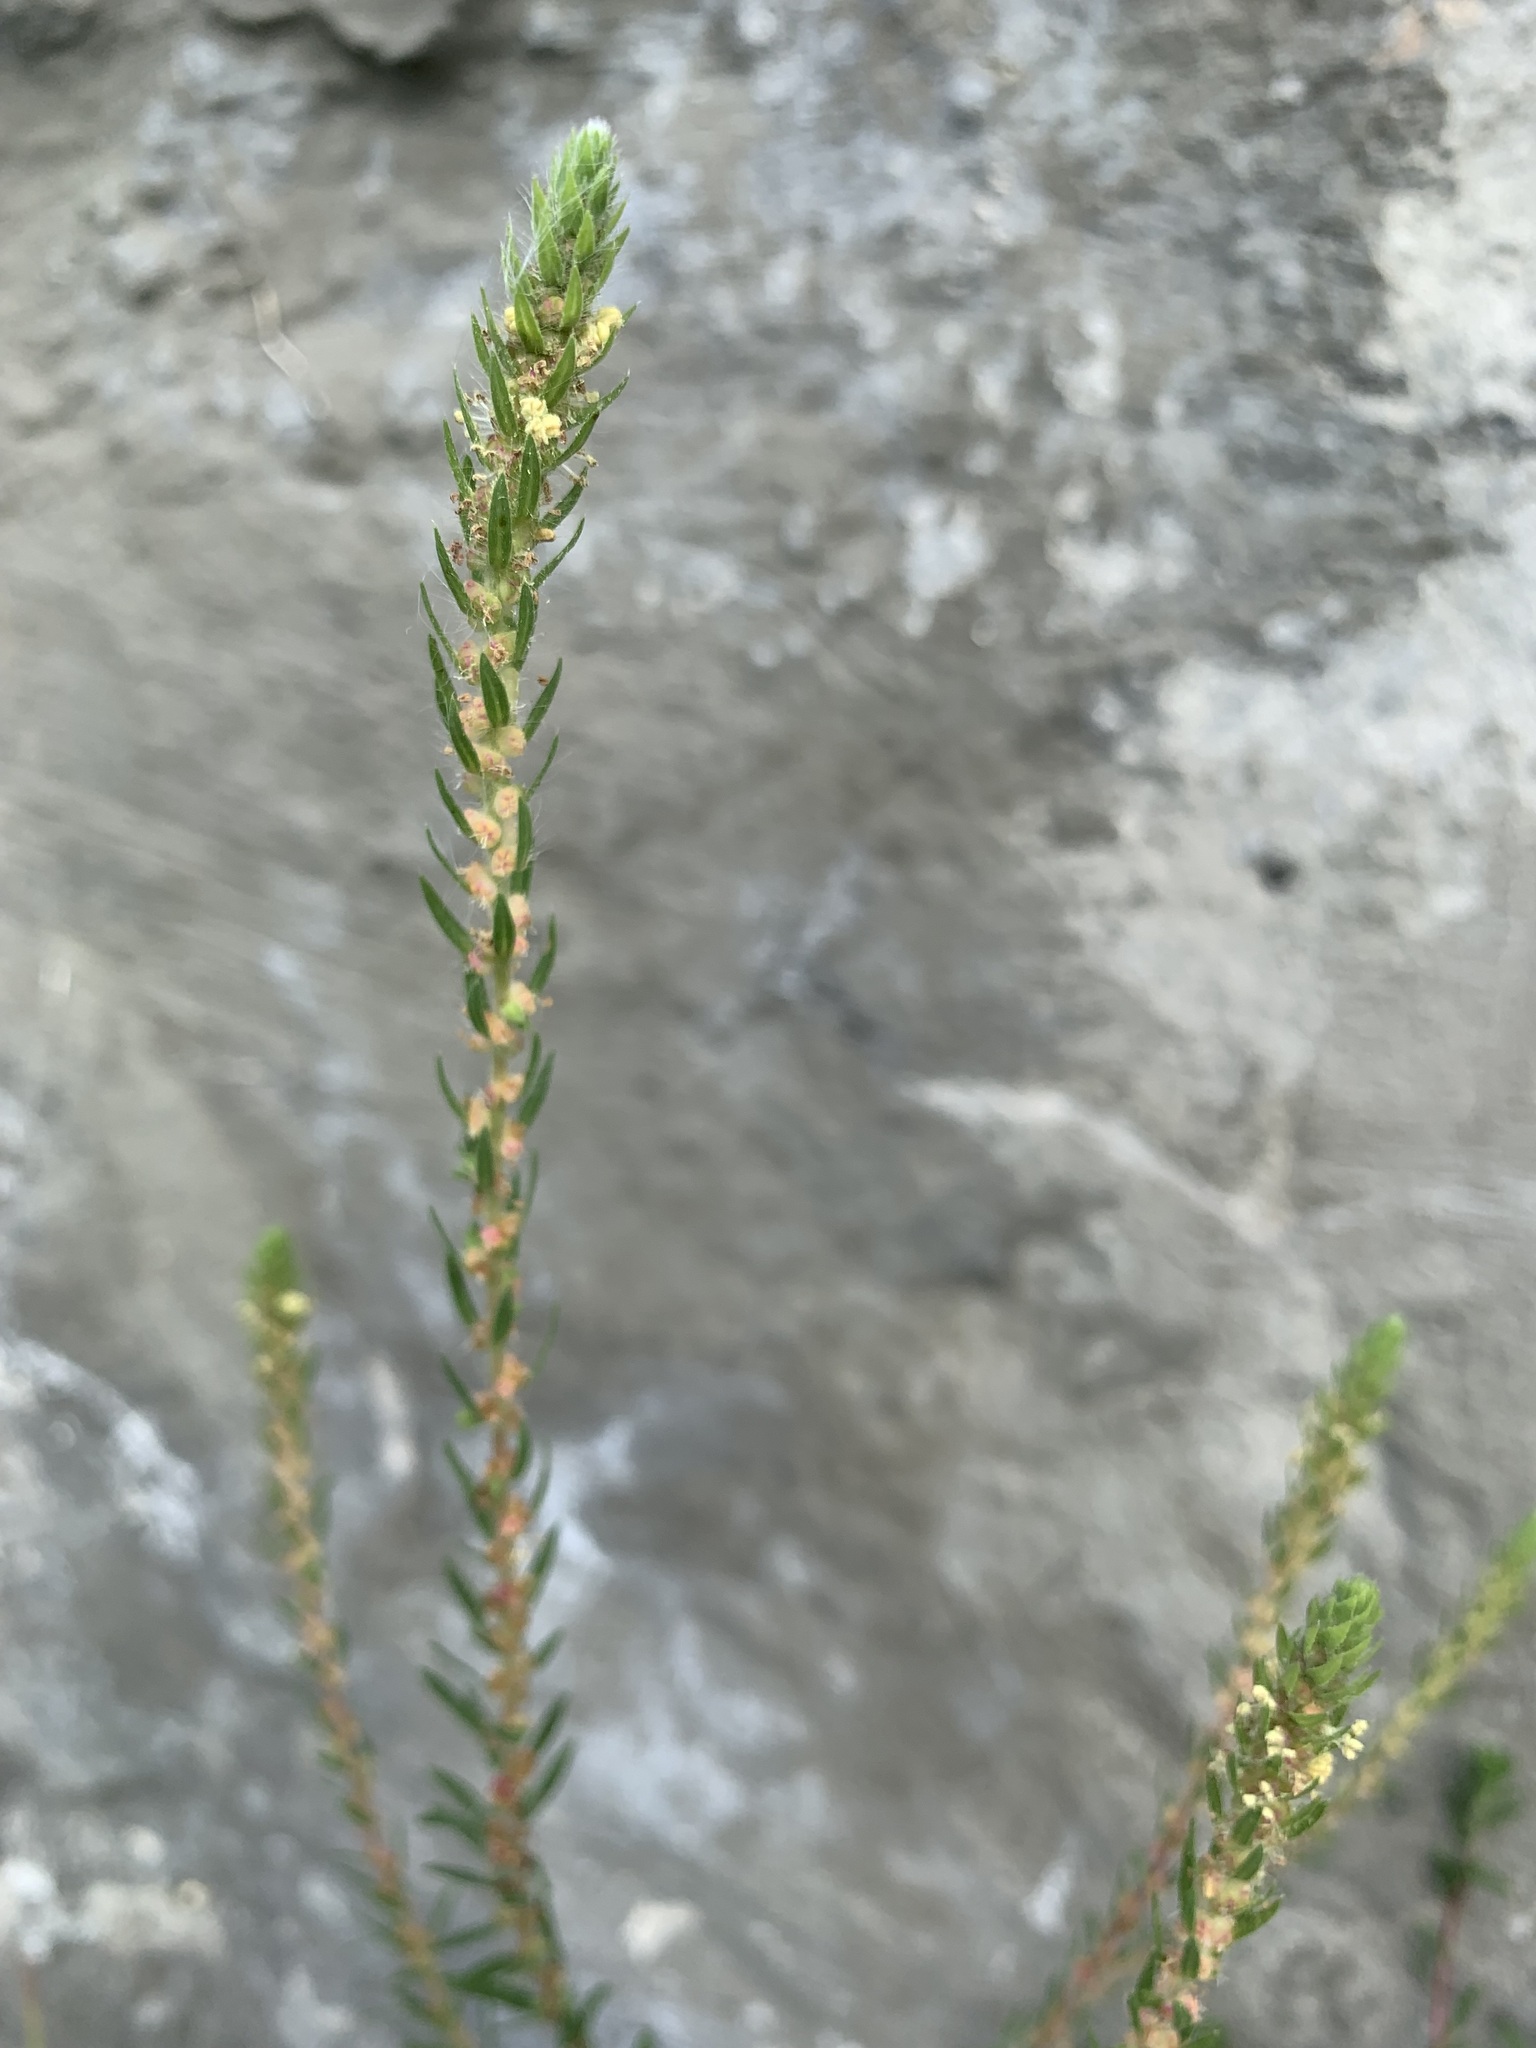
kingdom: Plantae
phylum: Tracheophyta
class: Magnoliopsida
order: Caryophyllales
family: Amaranthaceae
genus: Bassia
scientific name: Bassia scoparia
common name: Belvedere
